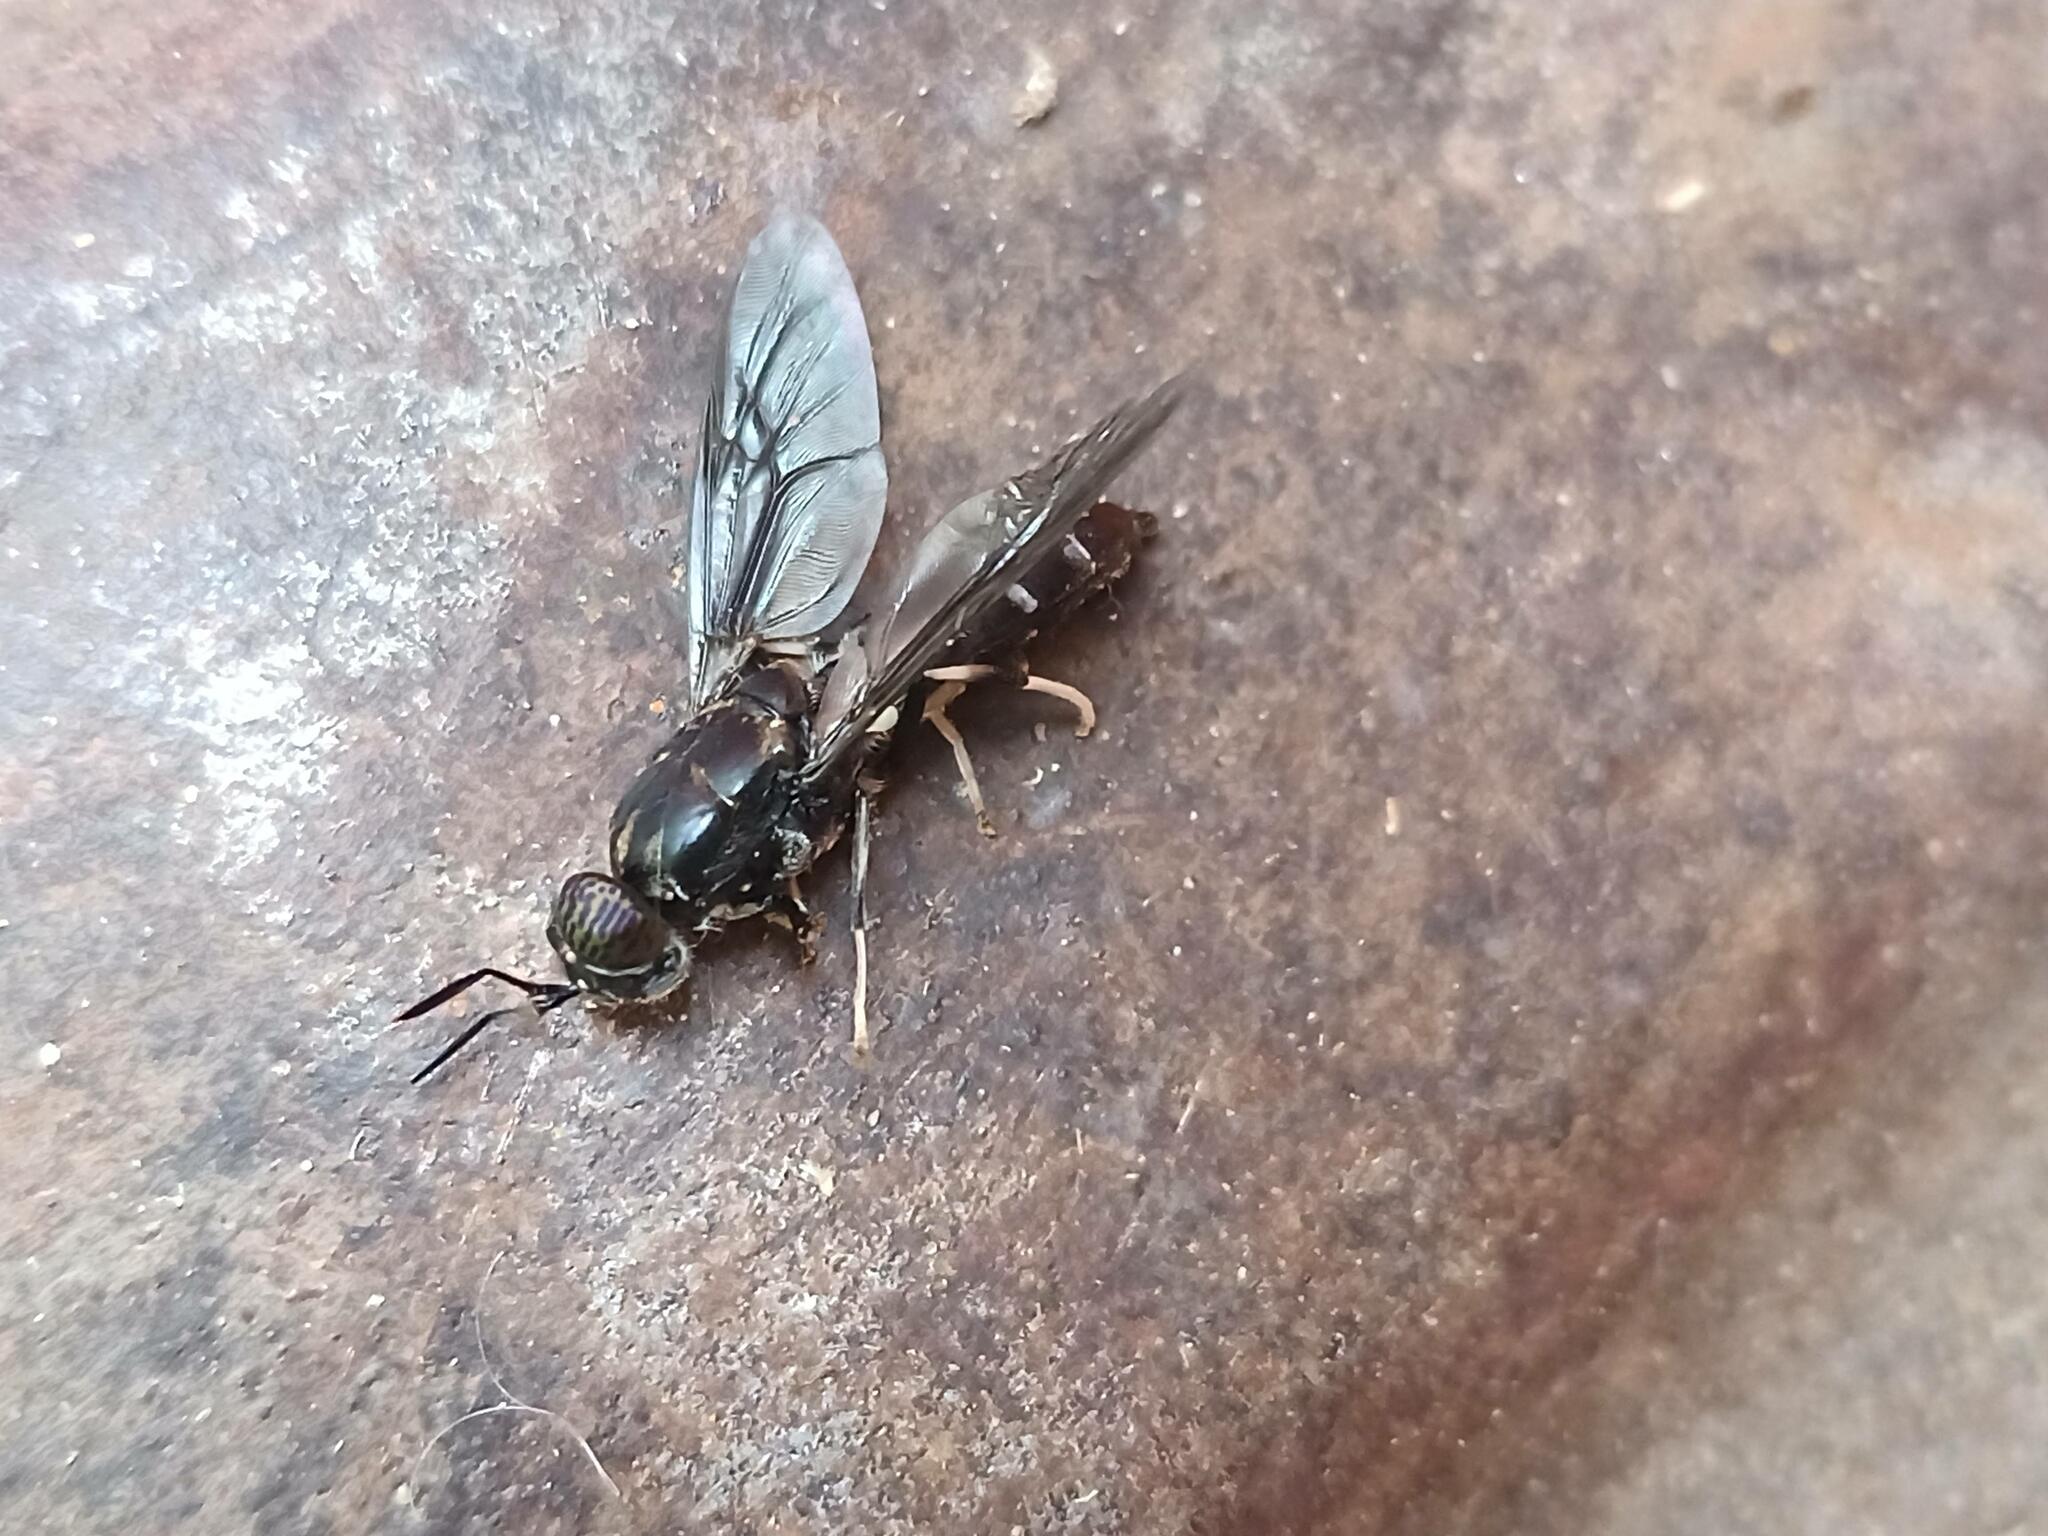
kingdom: Animalia
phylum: Arthropoda
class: Insecta
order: Diptera
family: Stratiomyidae
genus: Hermetia
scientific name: Hermetia illucens
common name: Black soldier fly
